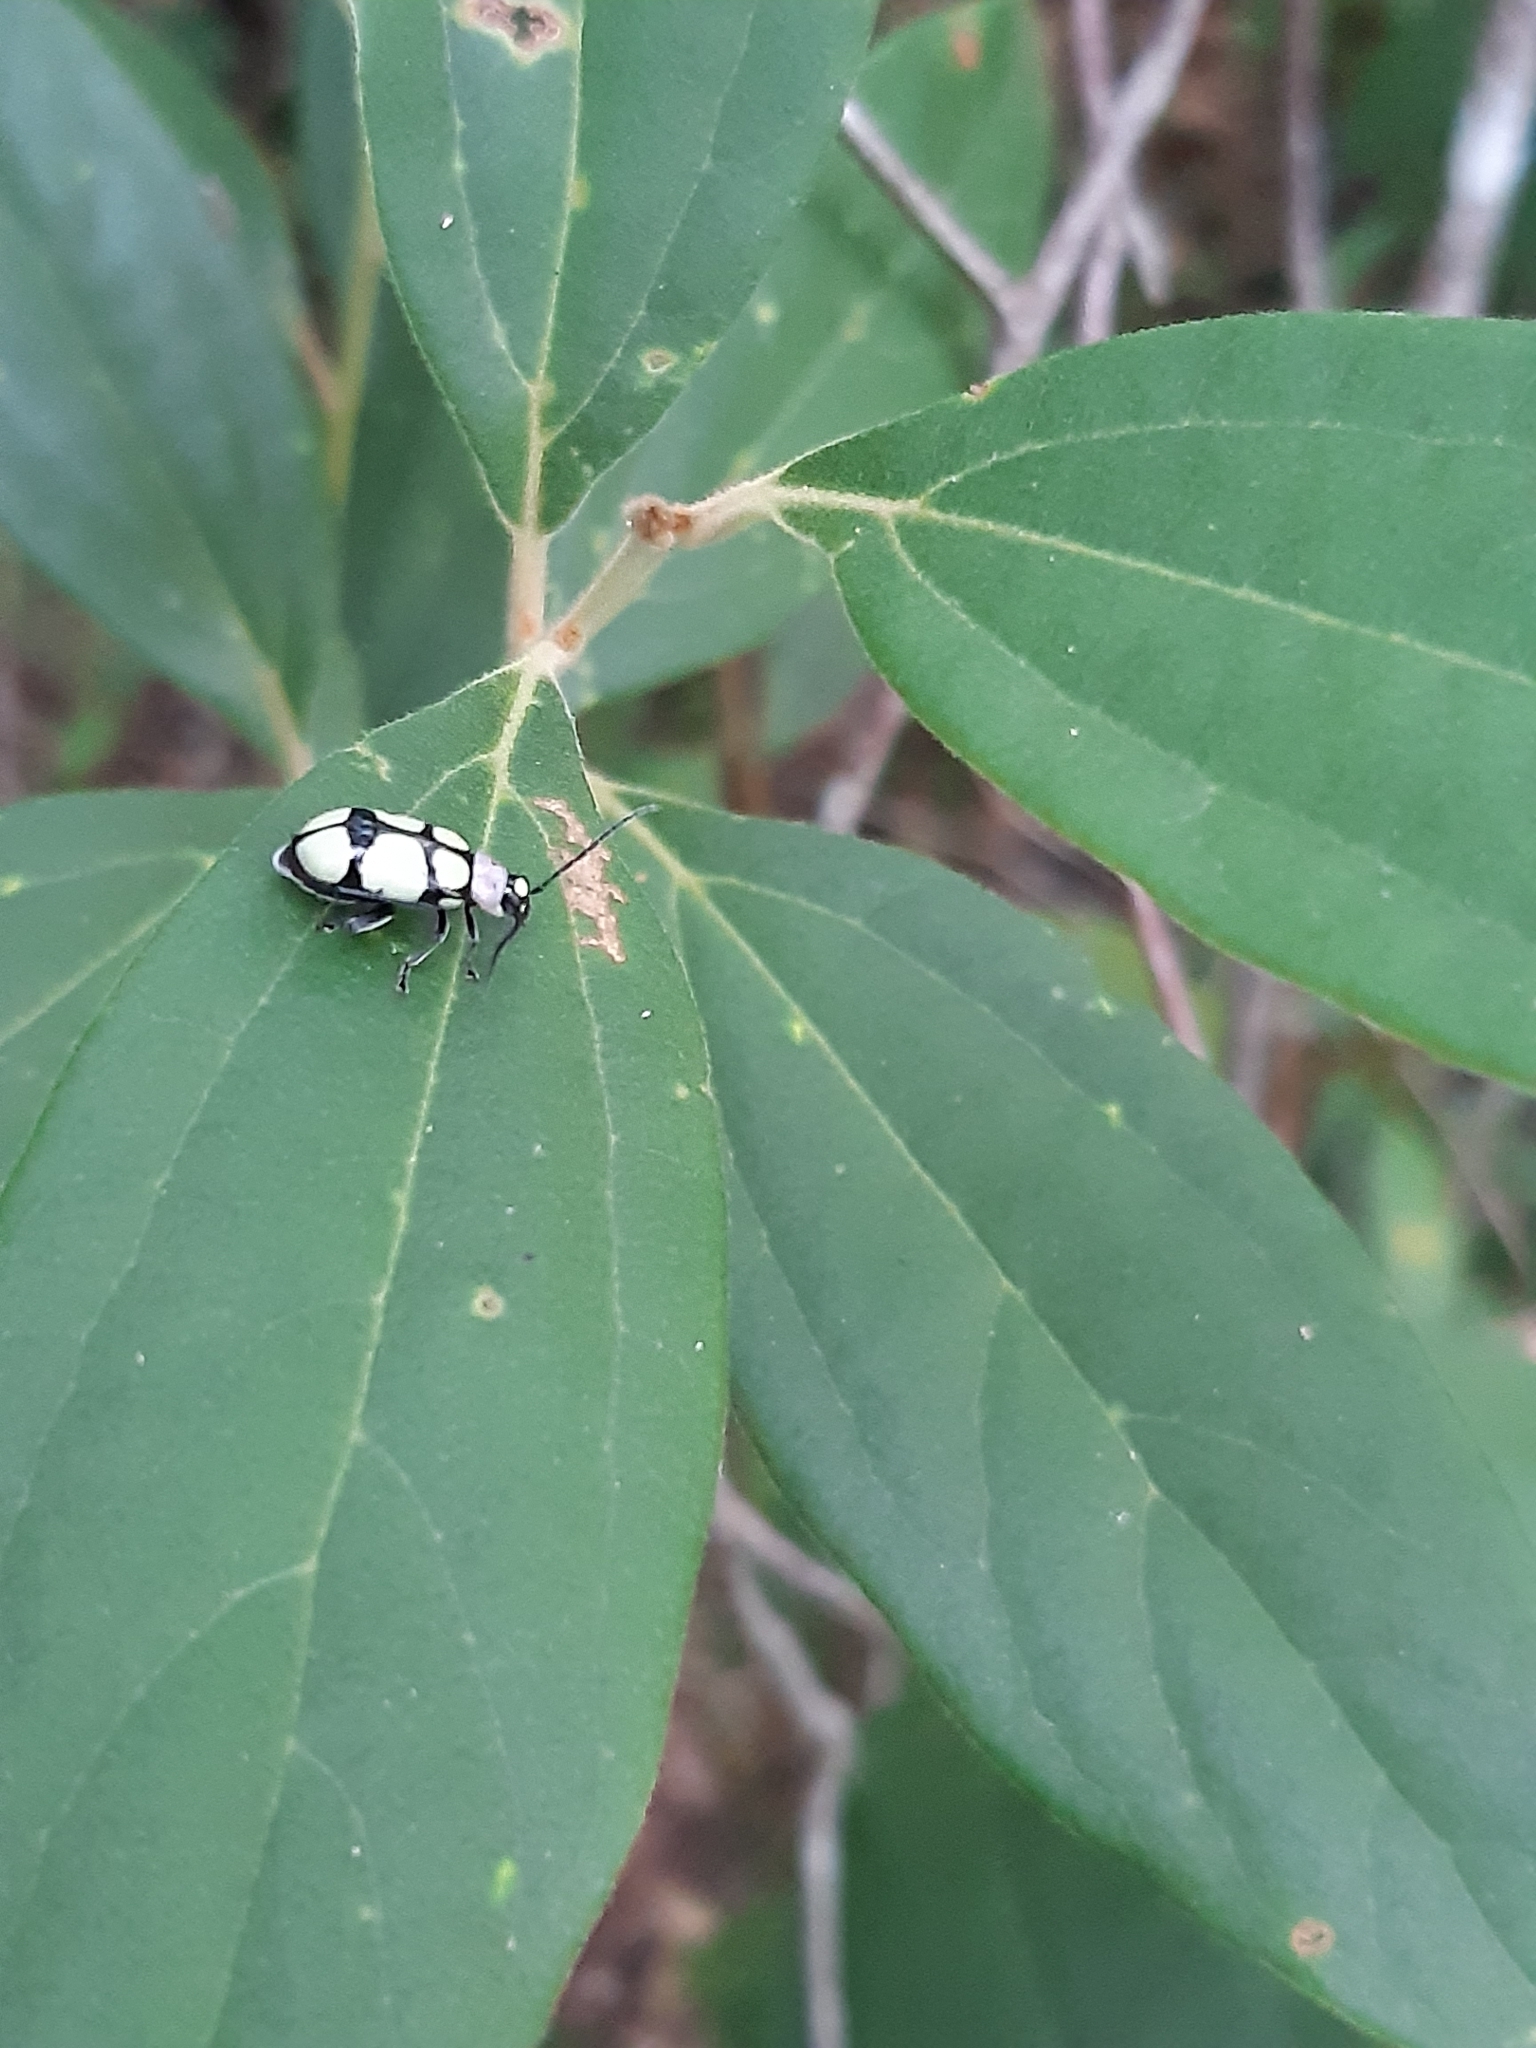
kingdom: Animalia
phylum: Arthropoda
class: Insecta
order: Coleoptera
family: Chrysomelidae
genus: Omophoita
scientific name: Omophoita
